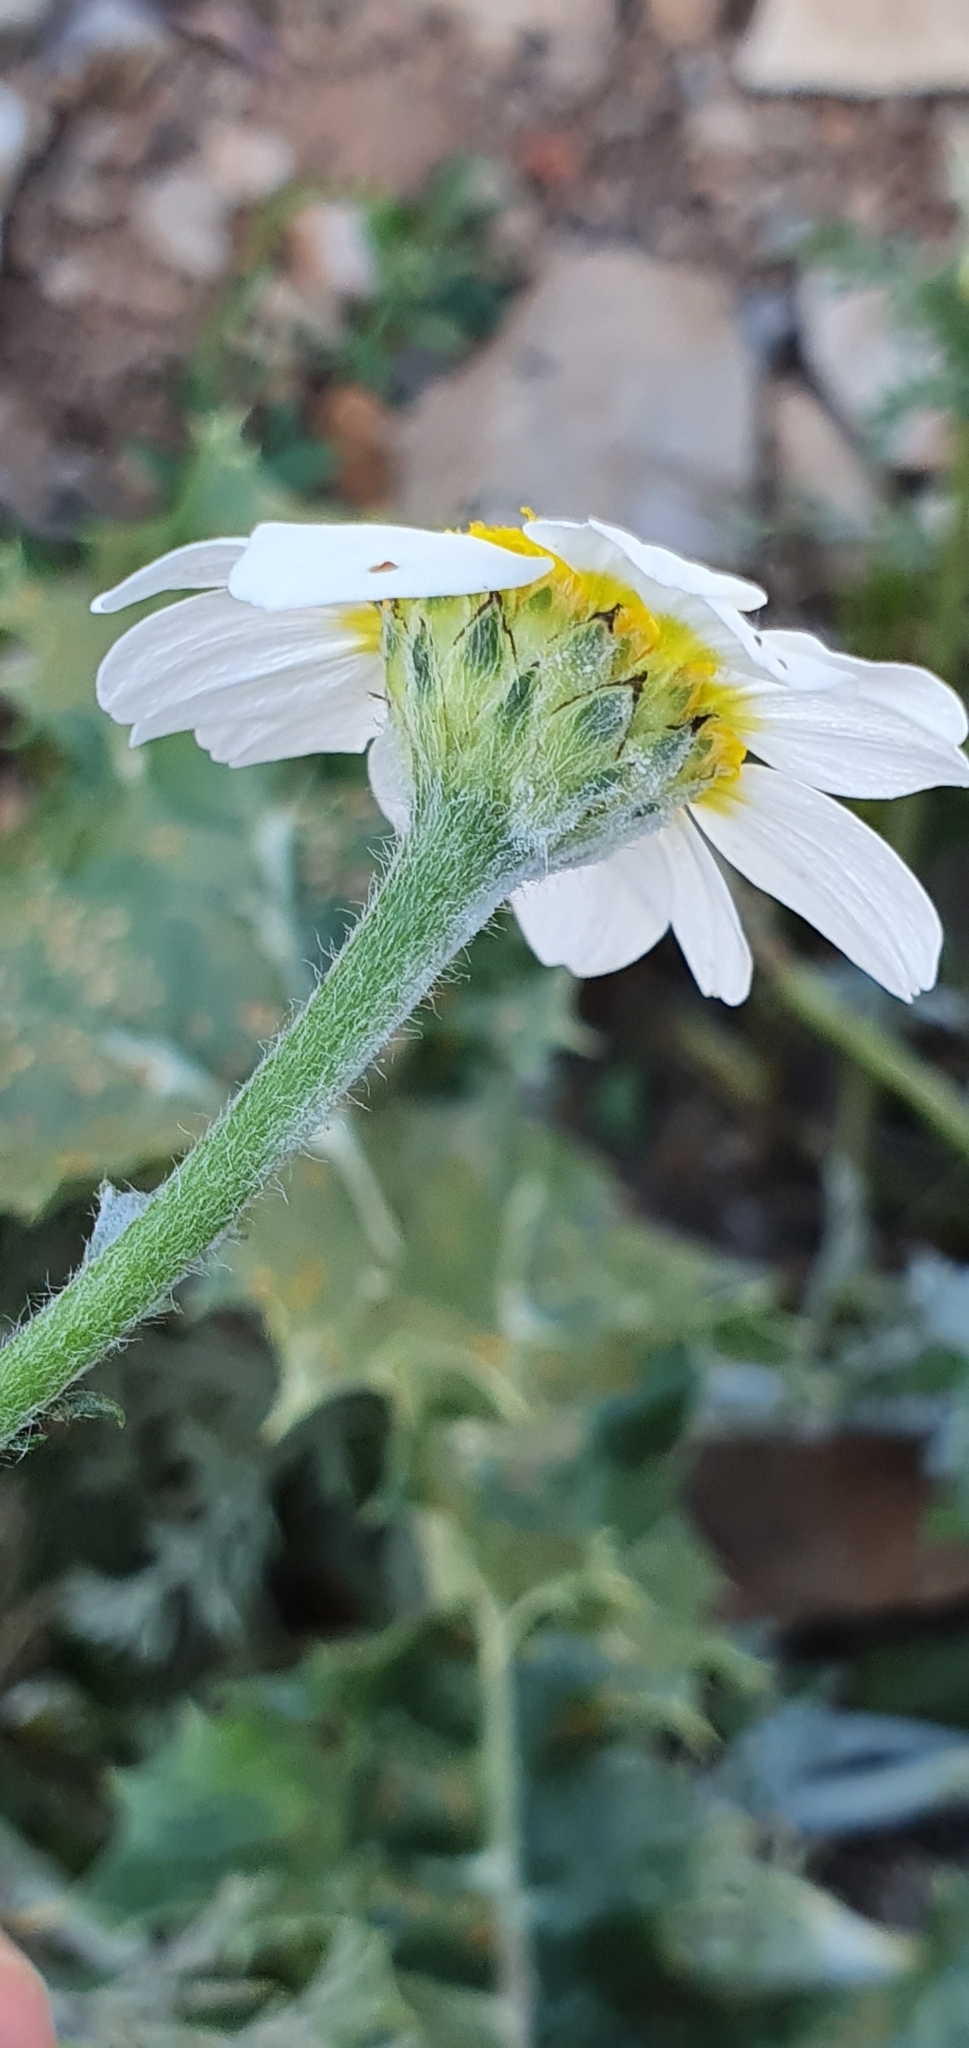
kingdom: Plantae
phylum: Tracheophyta
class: Magnoliopsida
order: Asterales
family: Asteraceae
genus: Anacyclus
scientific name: Anacyclus clavatus
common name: Whitebuttons
